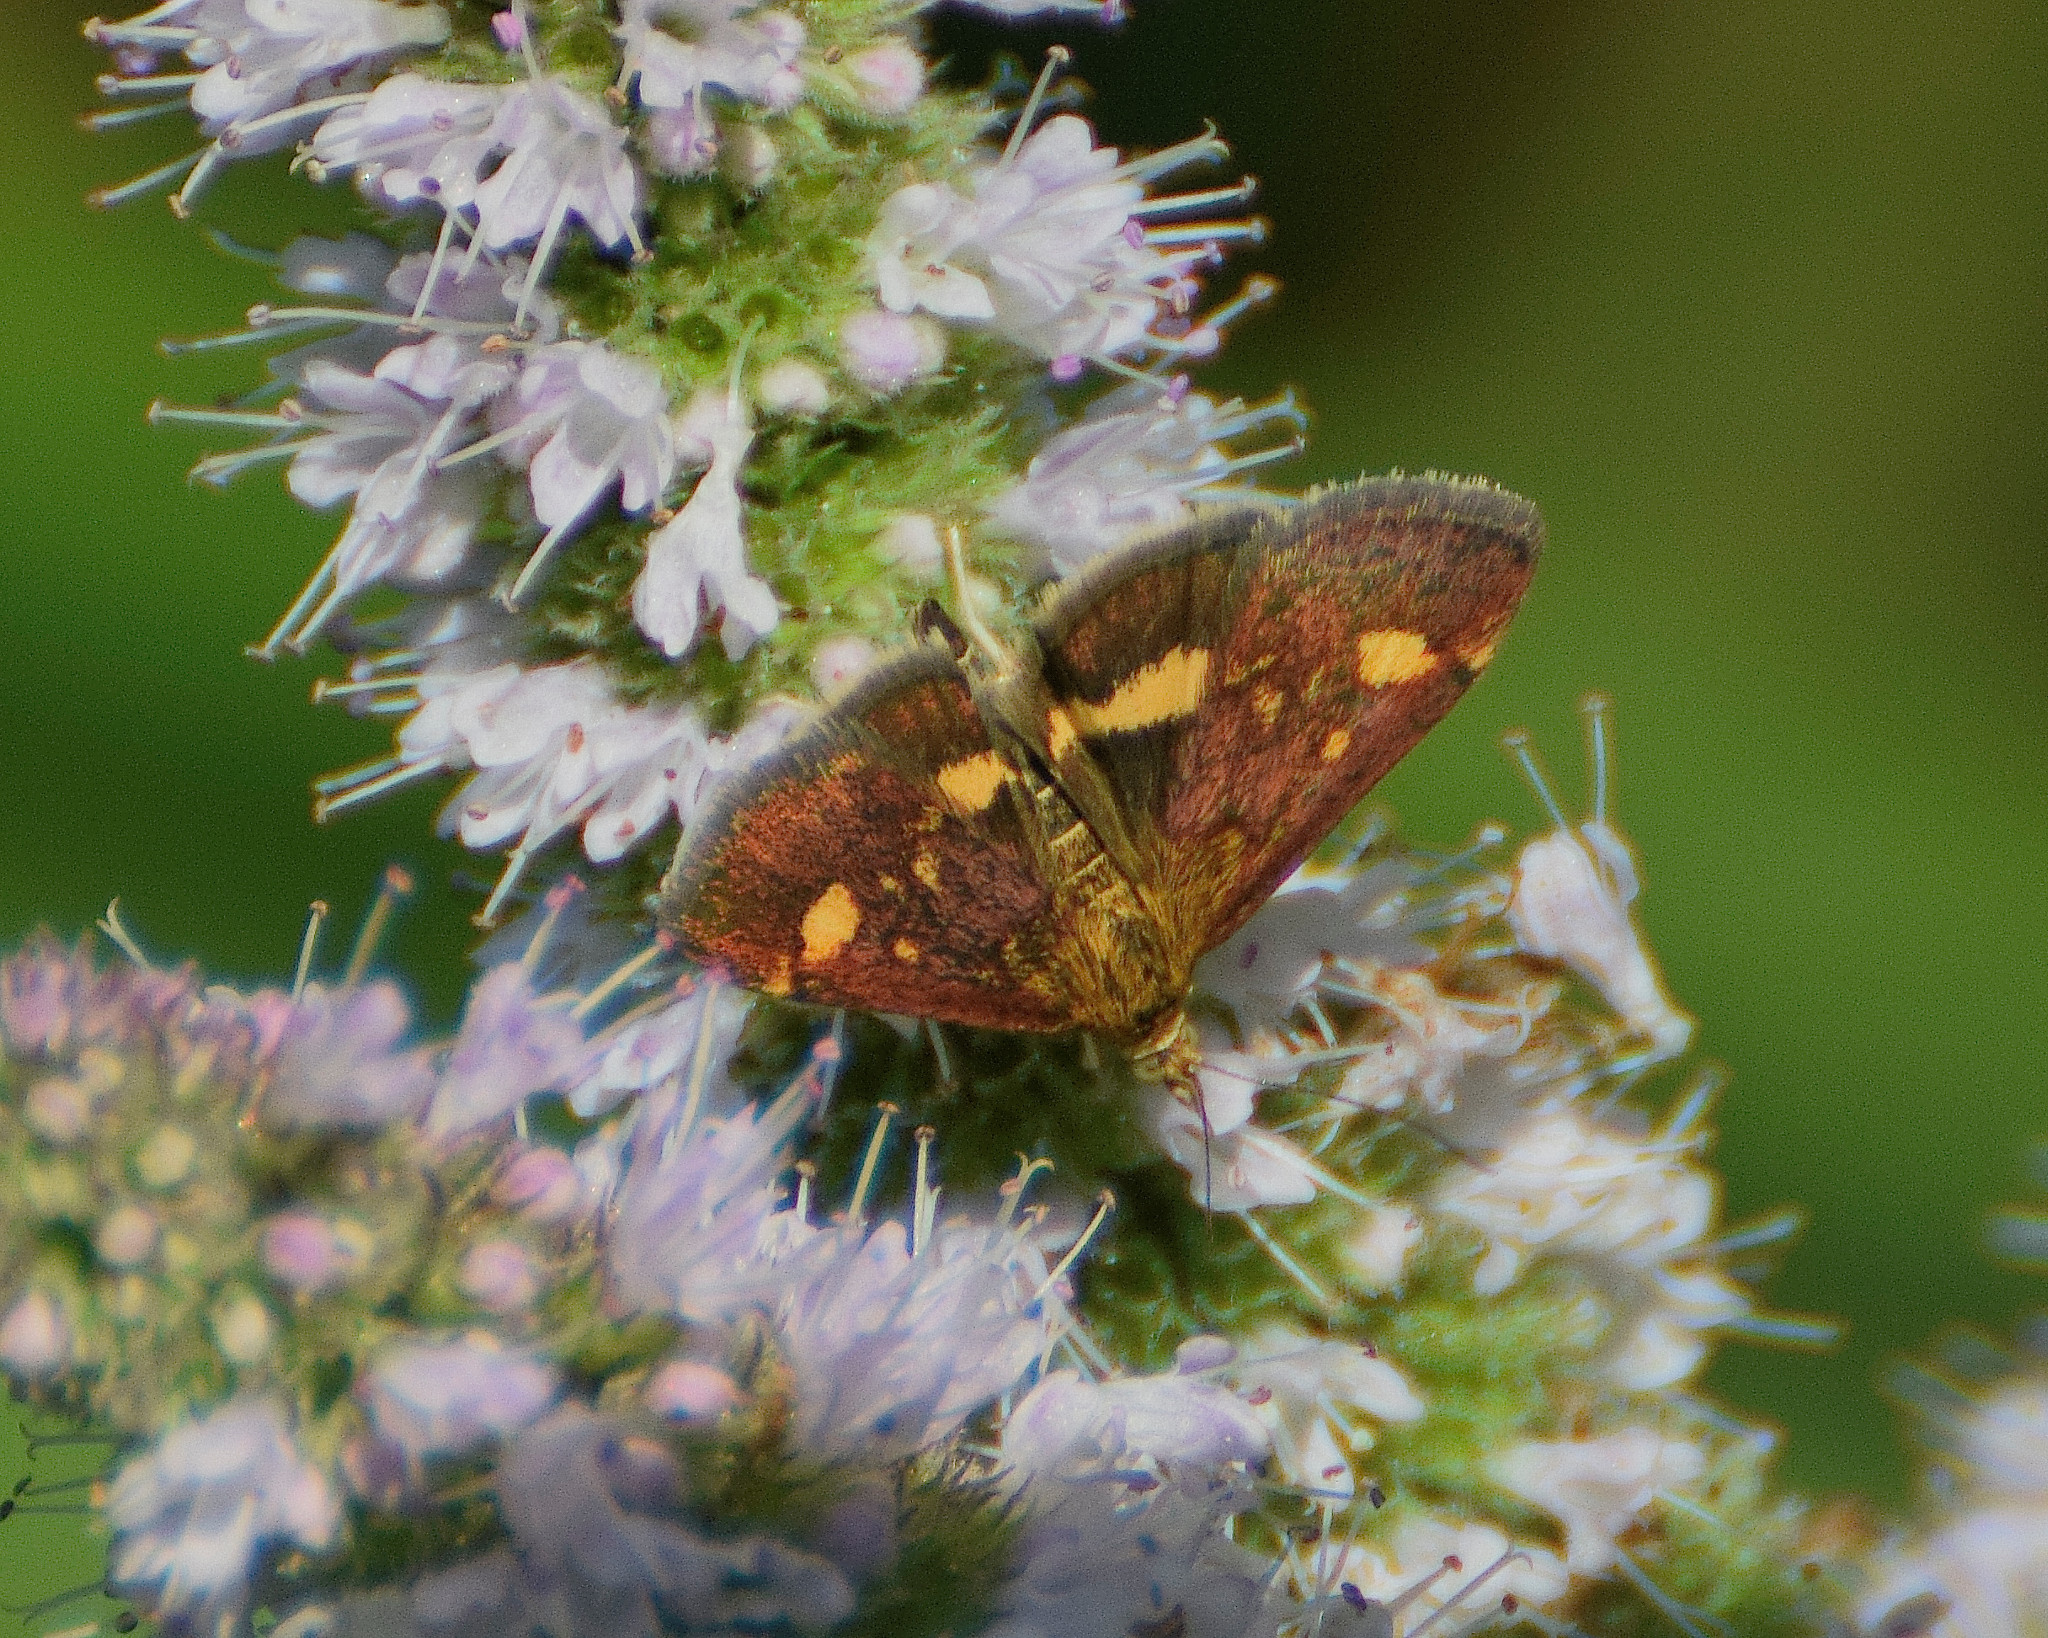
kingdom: Animalia
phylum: Arthropoda
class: Insecta
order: Lepidoptera
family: Crambidae
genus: Pyrausta
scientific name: Pyrausta aurata
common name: Small purple & gold
